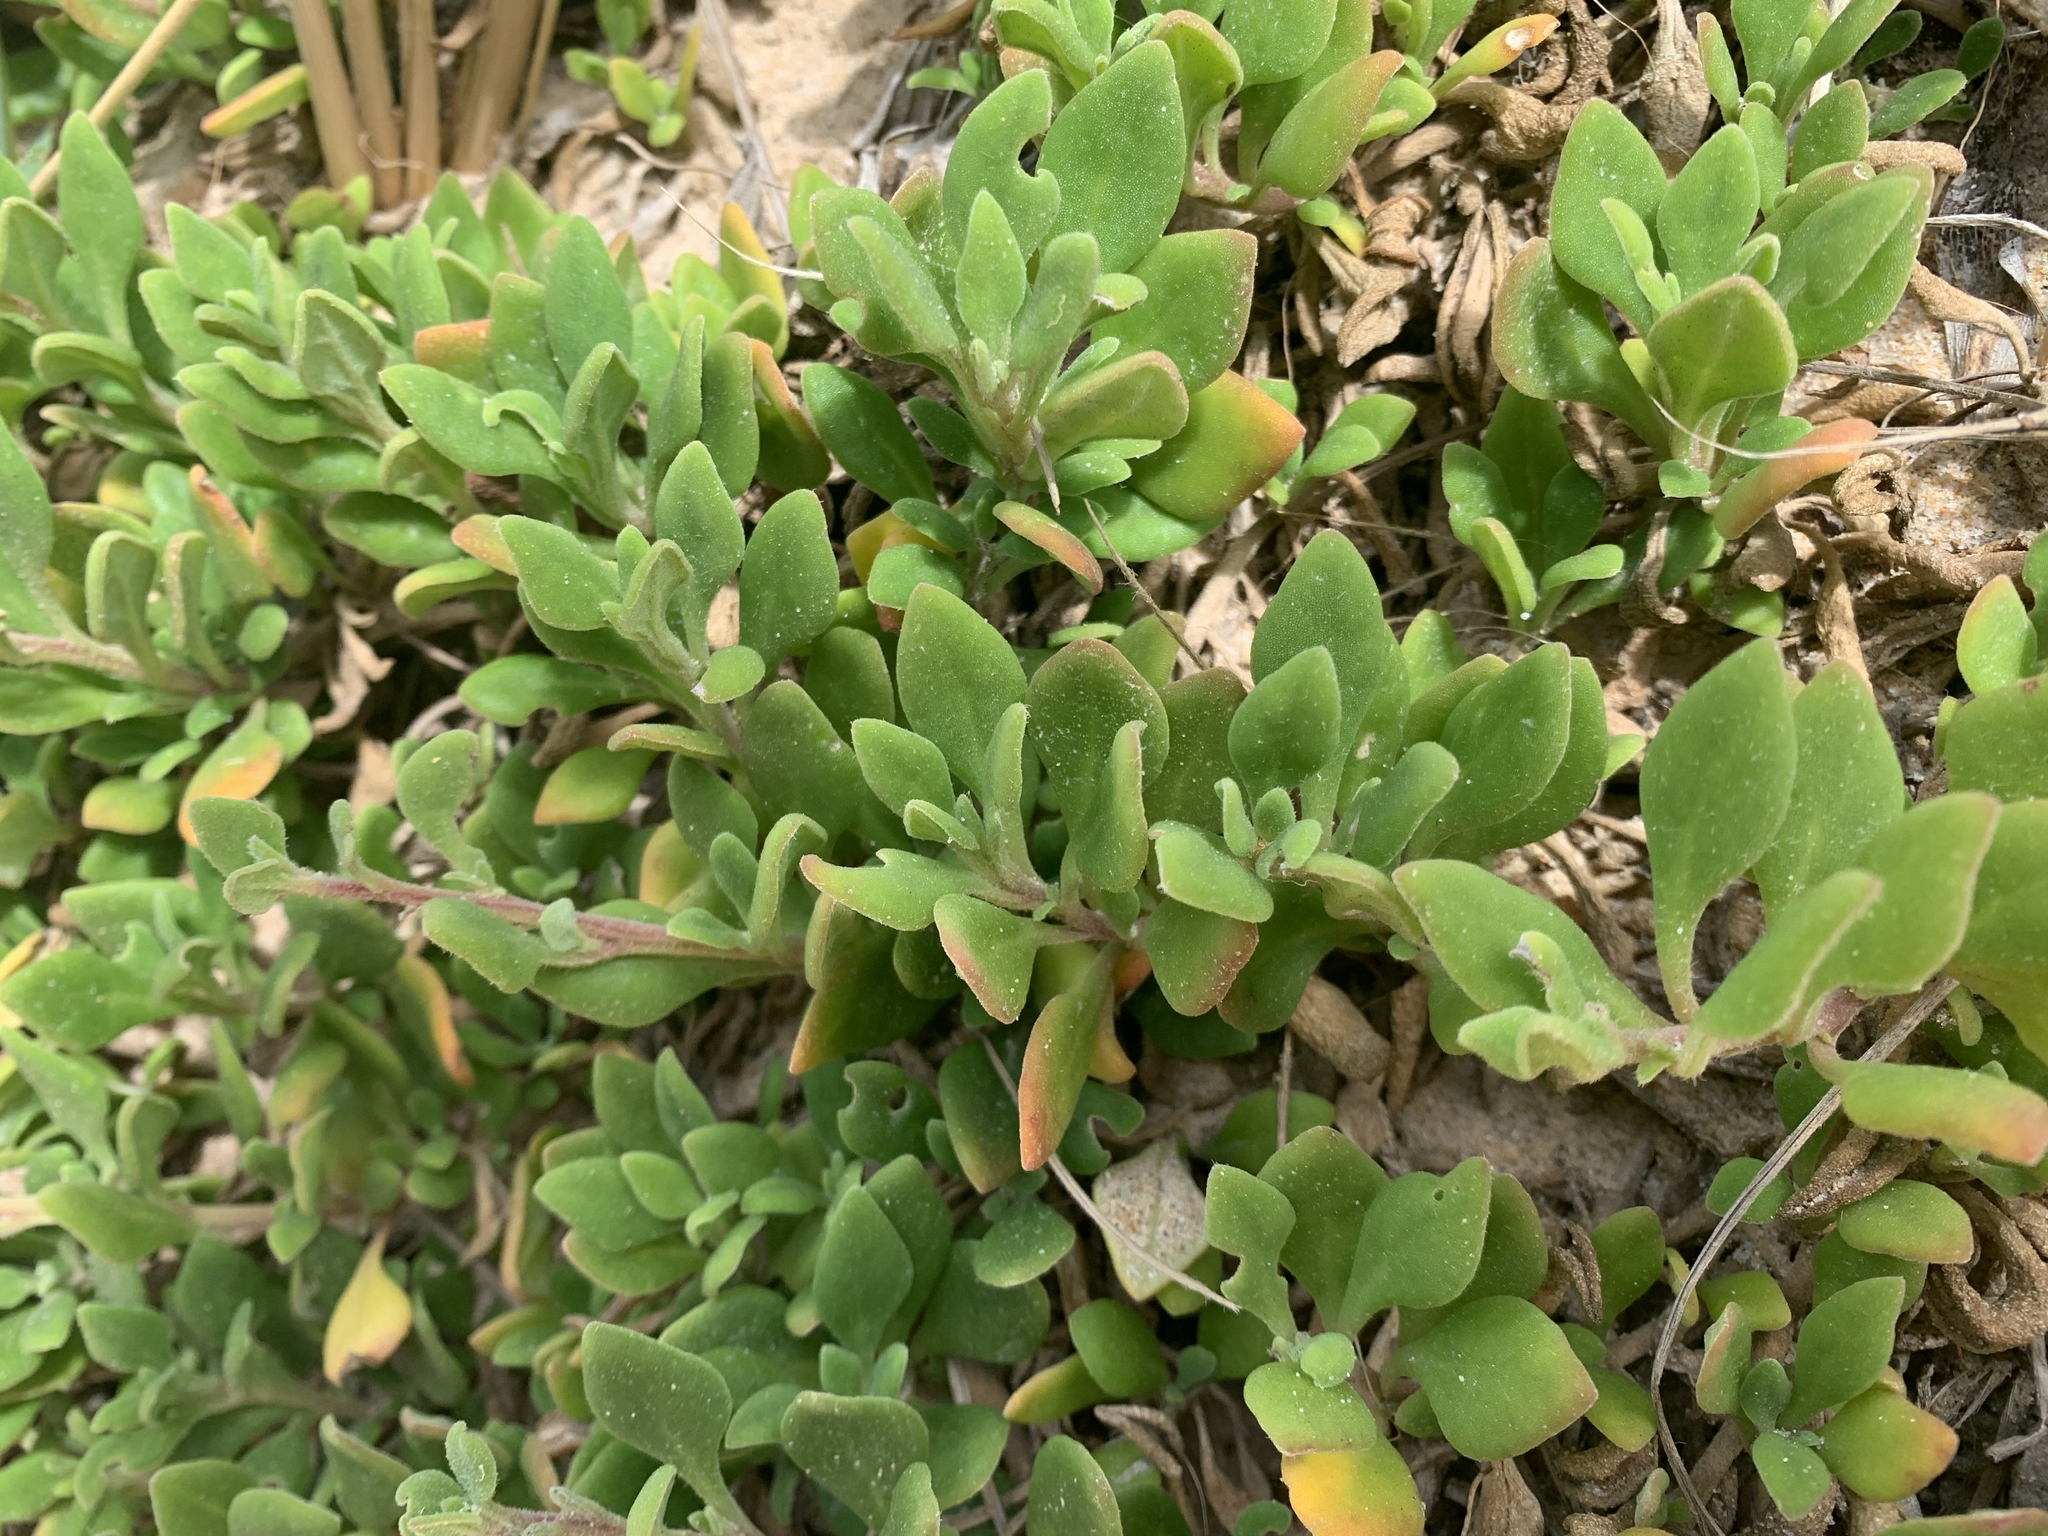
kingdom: Plantae
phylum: Tracheophyta
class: Magnoliopsida
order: Caryophyllales
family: Aizoaceae
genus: Tetragonia
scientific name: Tetragonia implexicoma
